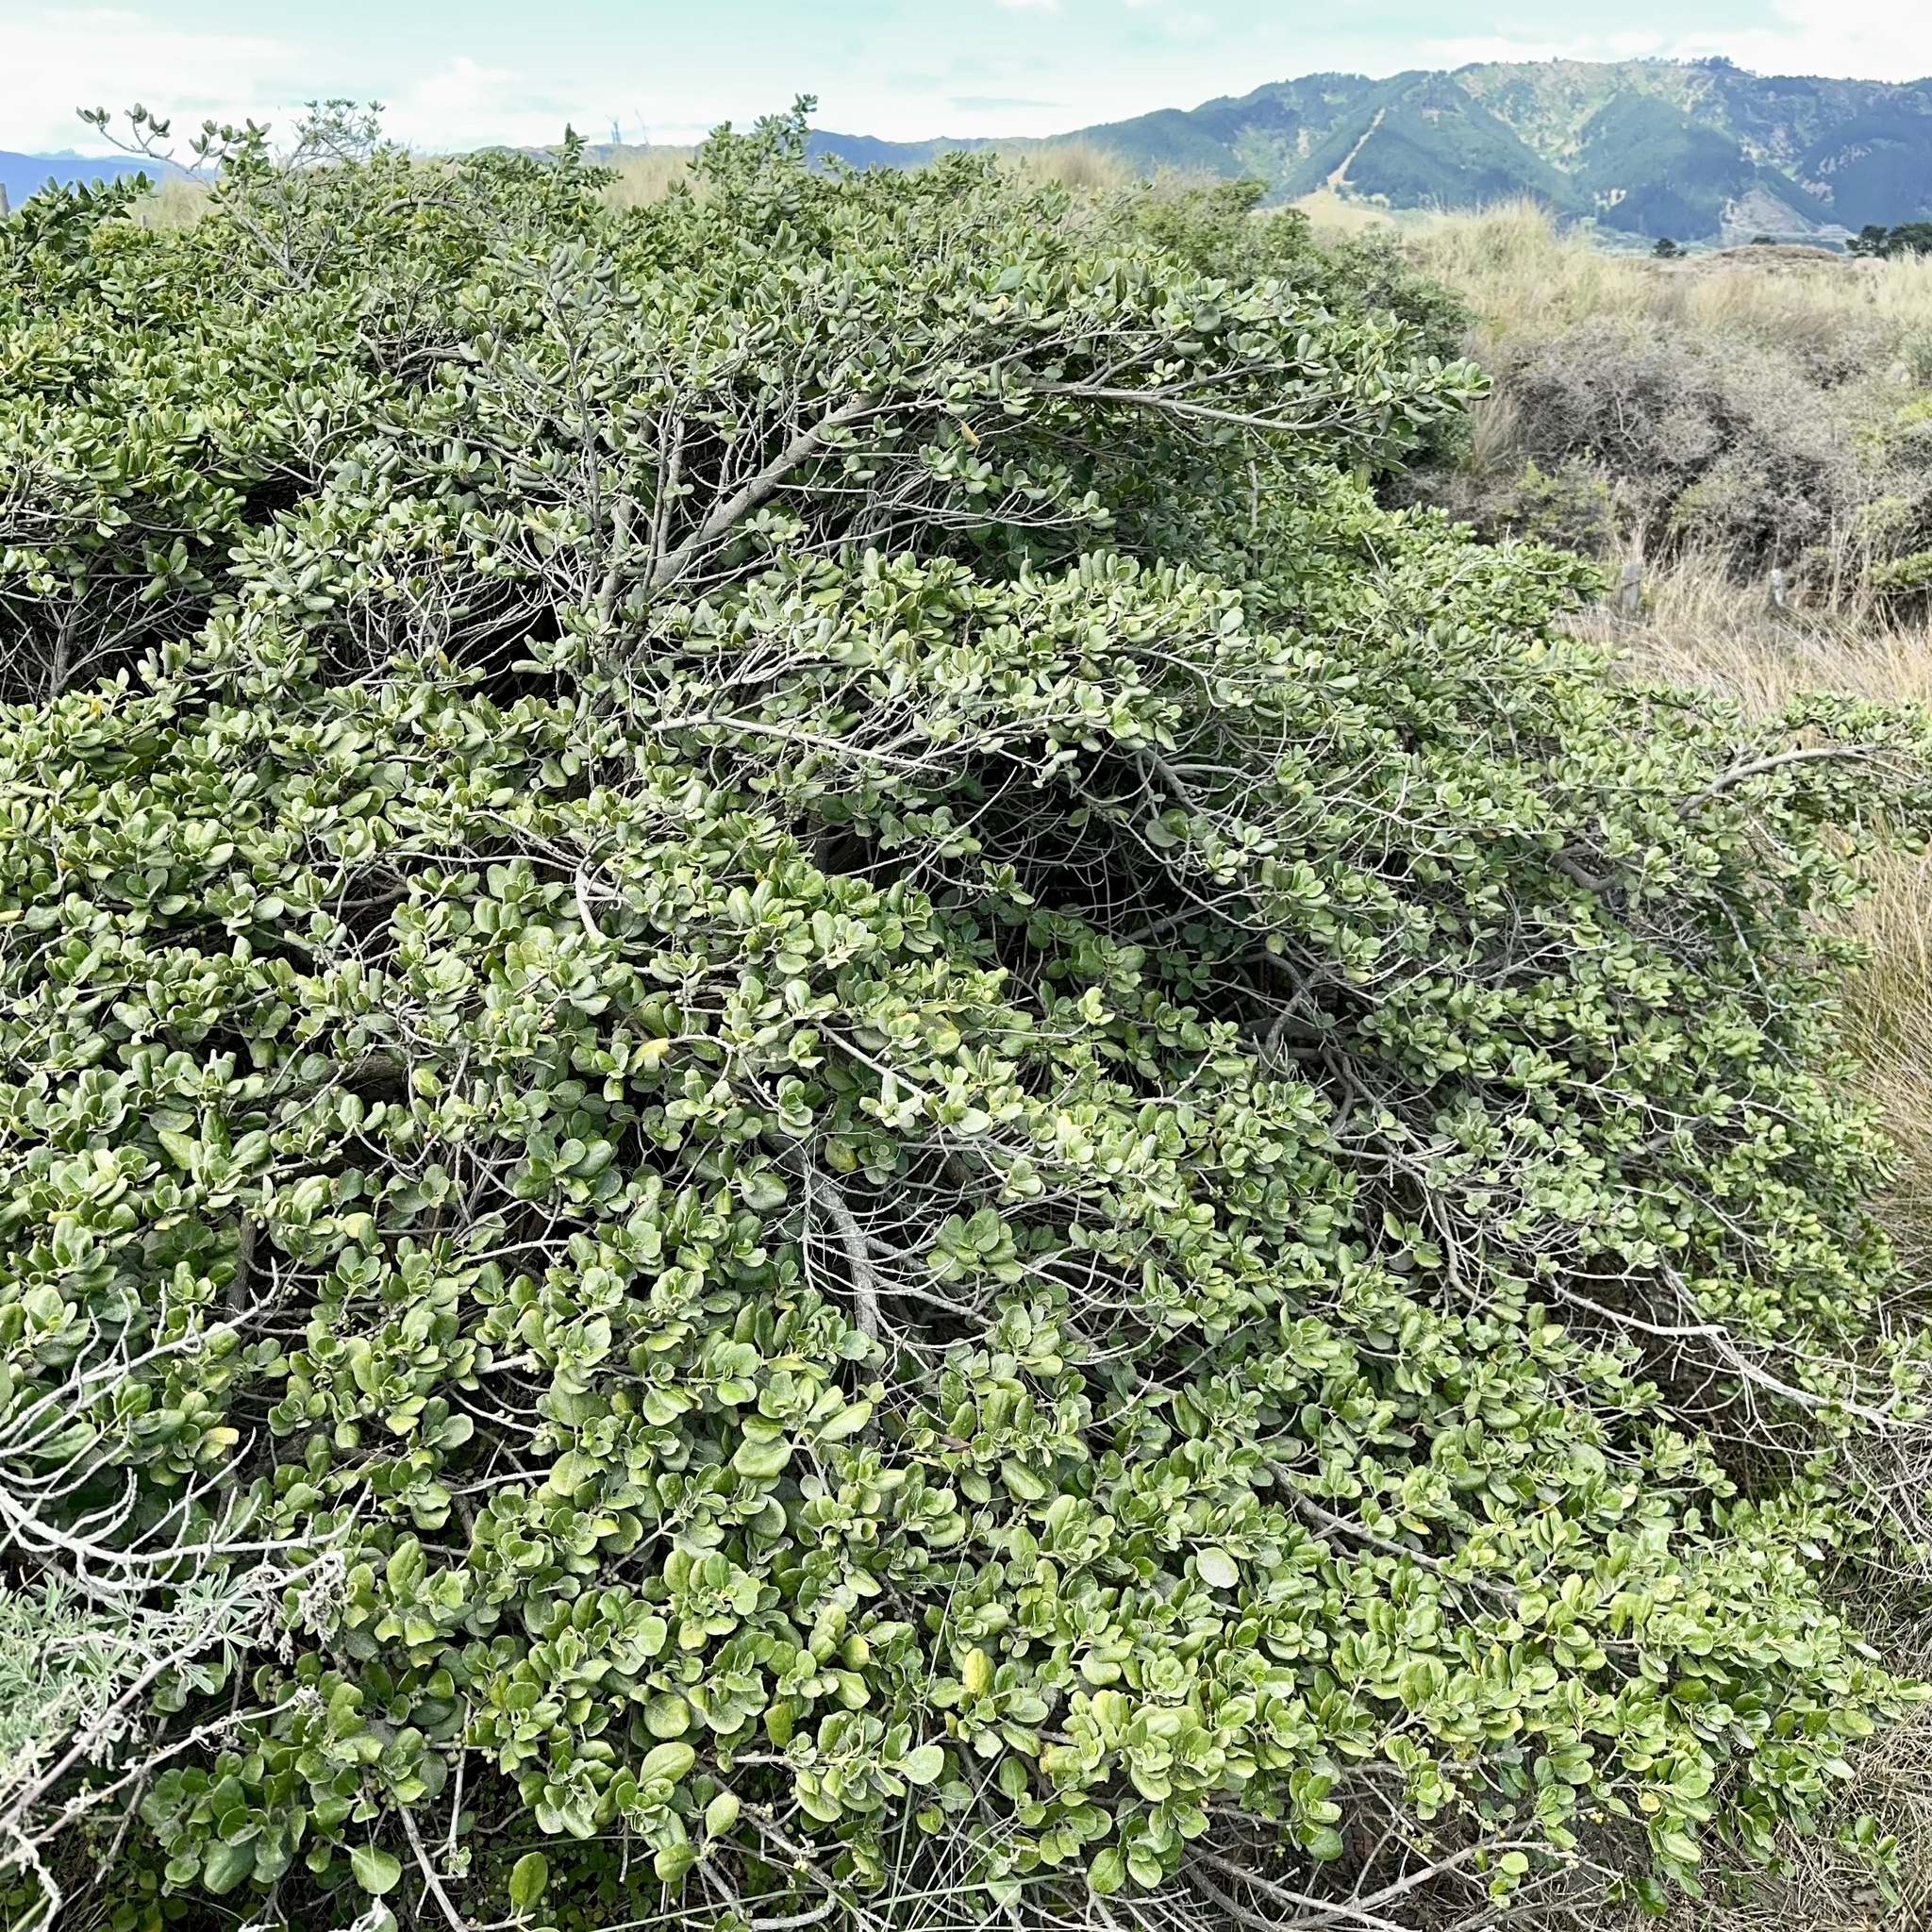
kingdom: Plantae
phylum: Tracheophyta
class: Magnoliopsida
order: Gentianales
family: Rubiaceae
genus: Coprosma
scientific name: Coprosma repens
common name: Tree bedstraw
